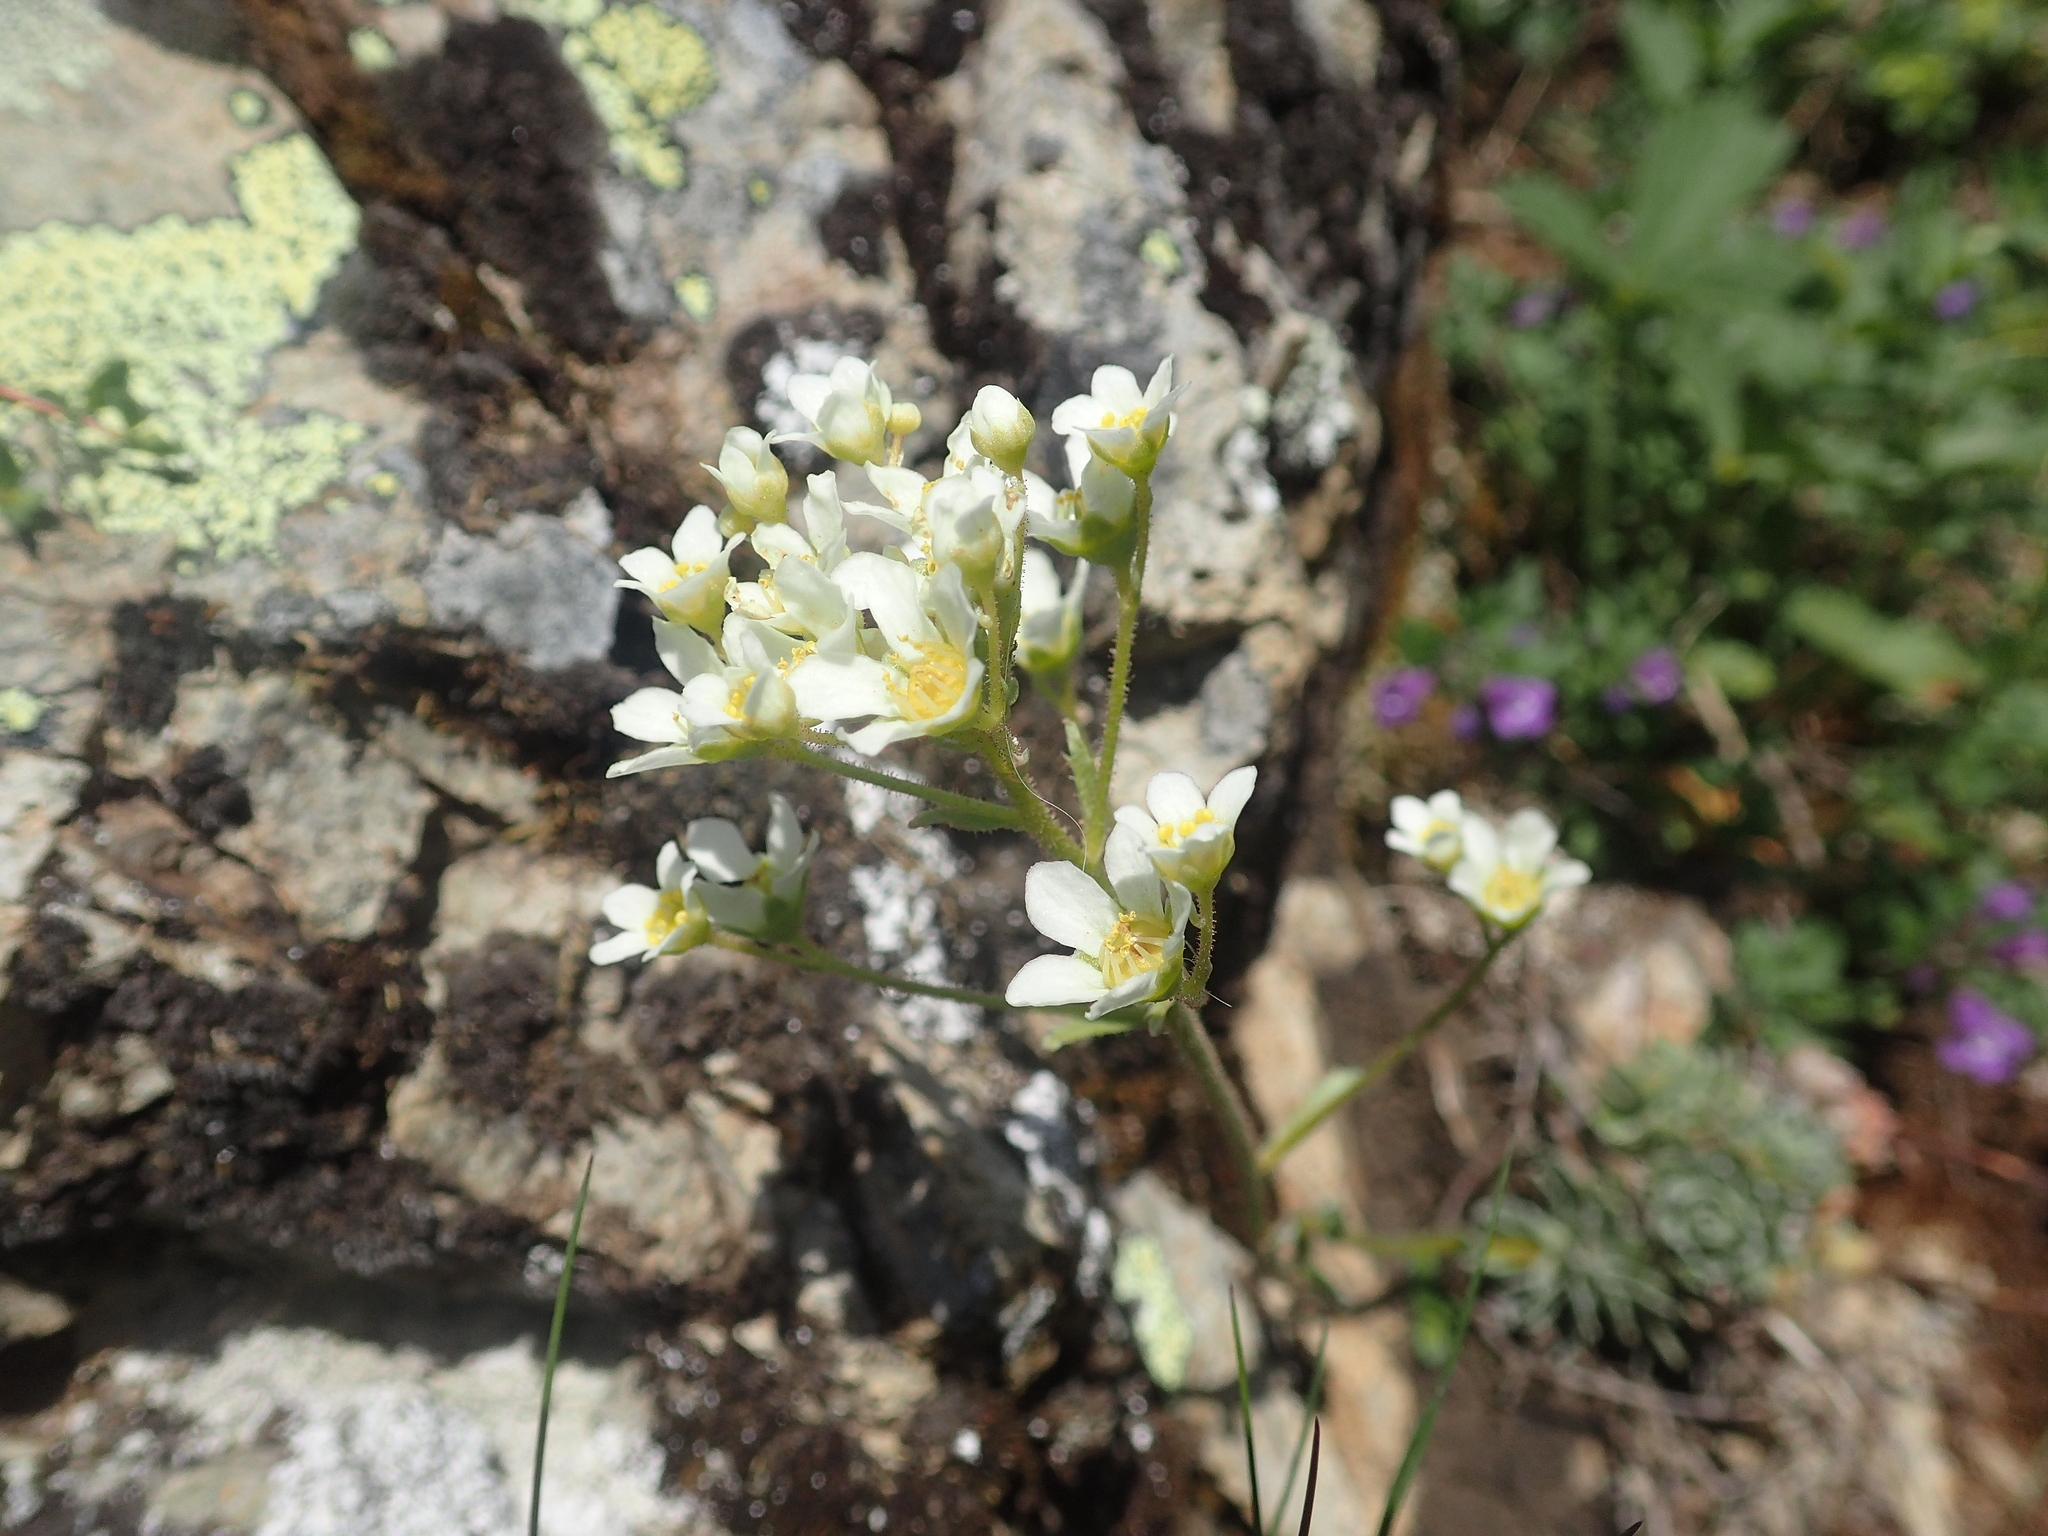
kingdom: Plantae
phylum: Tracheophyta
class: Magnoliopsida
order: Saxifragales
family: Saxifragaceae
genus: Saxifraga
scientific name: Saxifraga paniculata
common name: Livelong saxifrage
